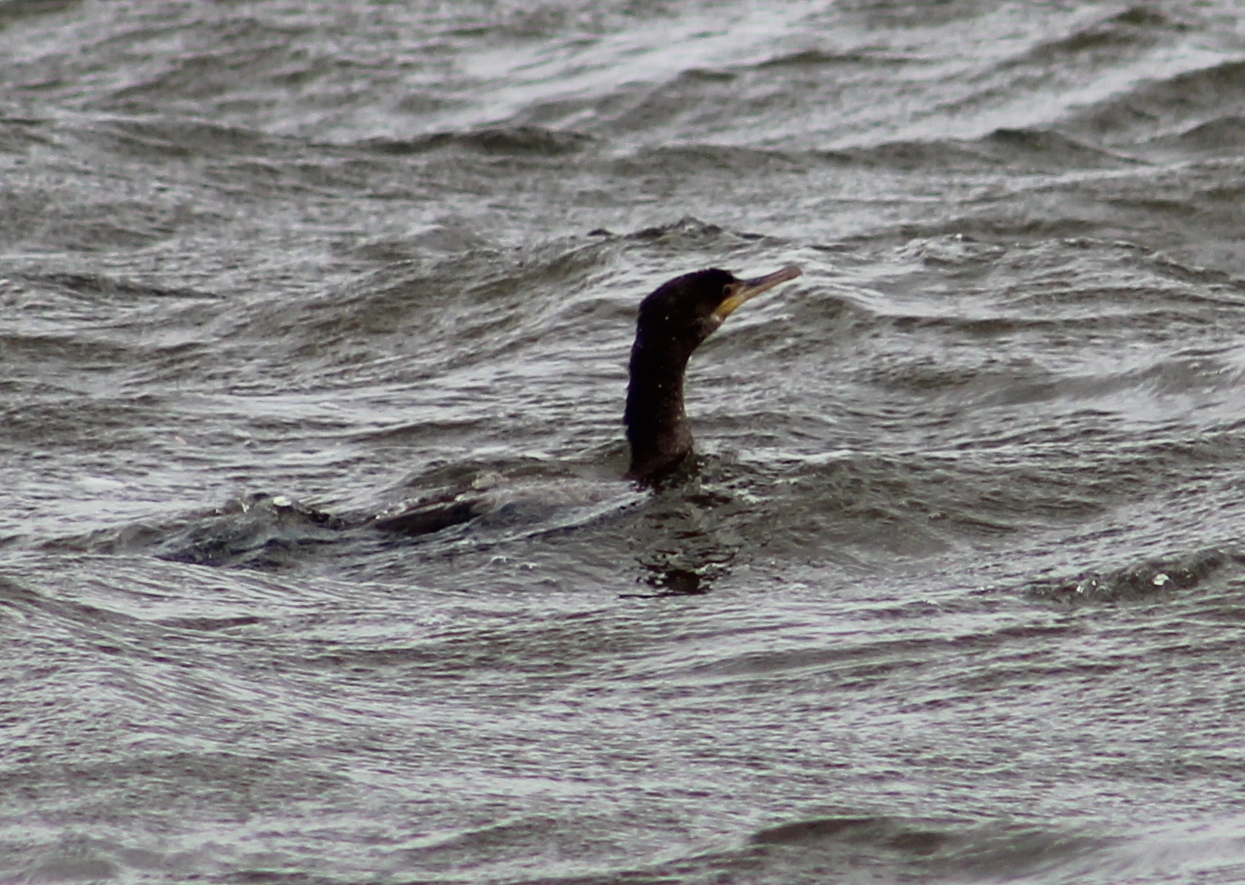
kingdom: Animalia
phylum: Chordata
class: Aves
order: Suliformes
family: Phalacrocoracidae
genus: Phalacrocorax
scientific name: Phalacrocorax brasilianus
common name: Neotropic cormorant
